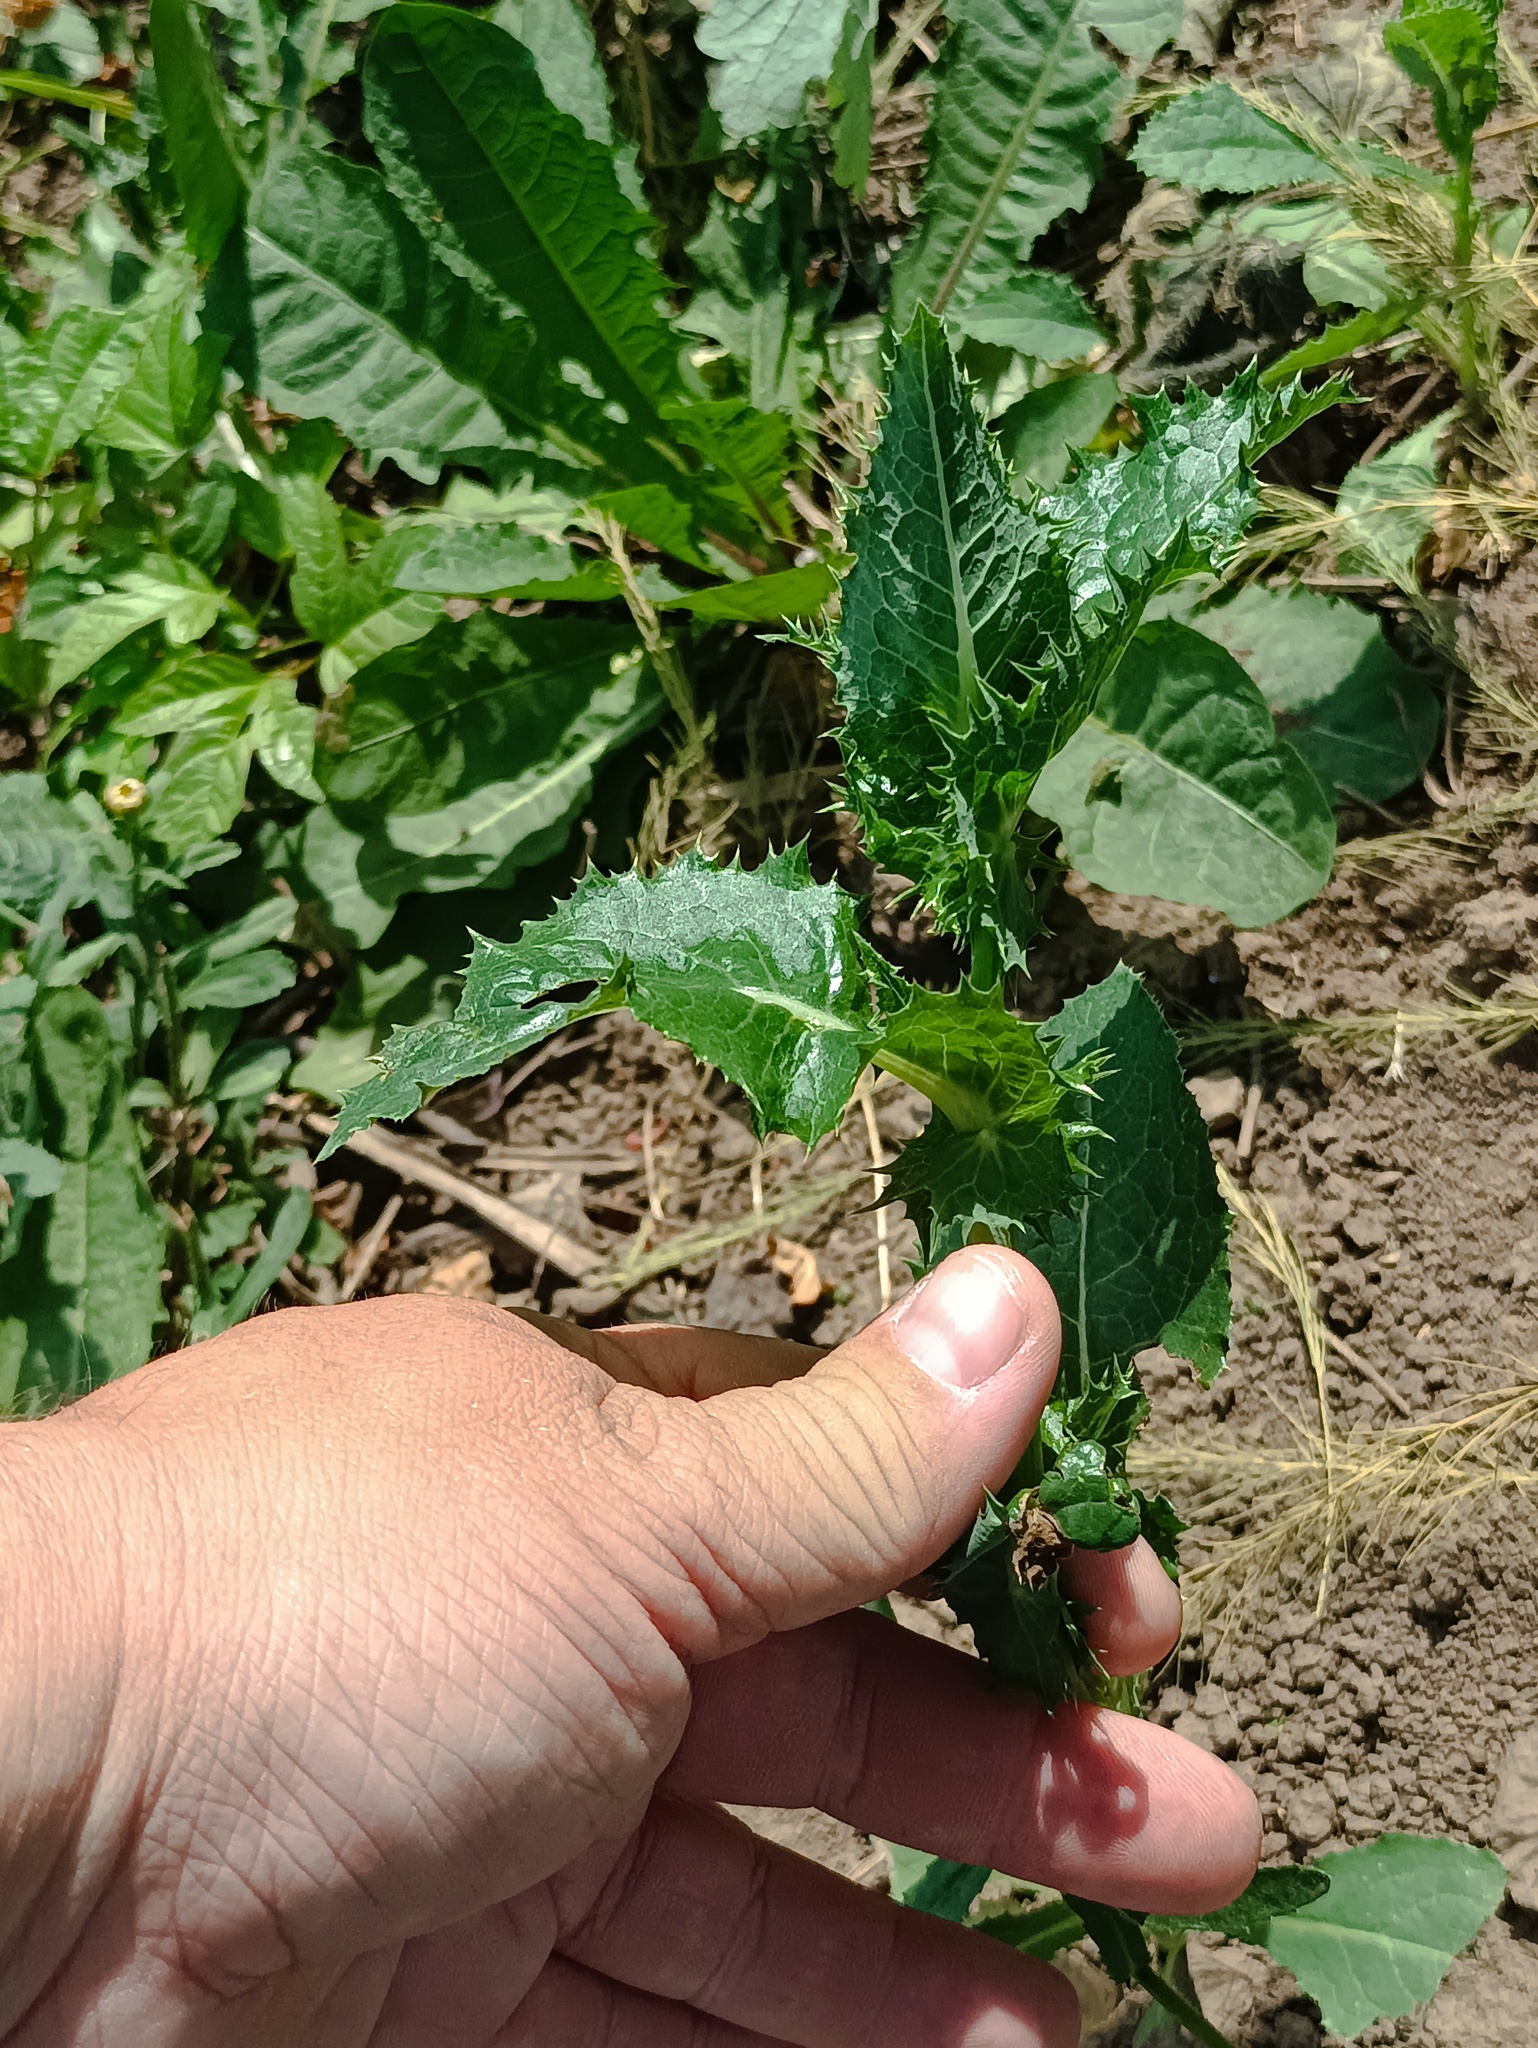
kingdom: Plantae
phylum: Tracheophyta
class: Magnoliopsida
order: Asterales
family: Asteraceae
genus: Sonchus
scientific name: Sonchus asper
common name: Prickly sow-thistle
